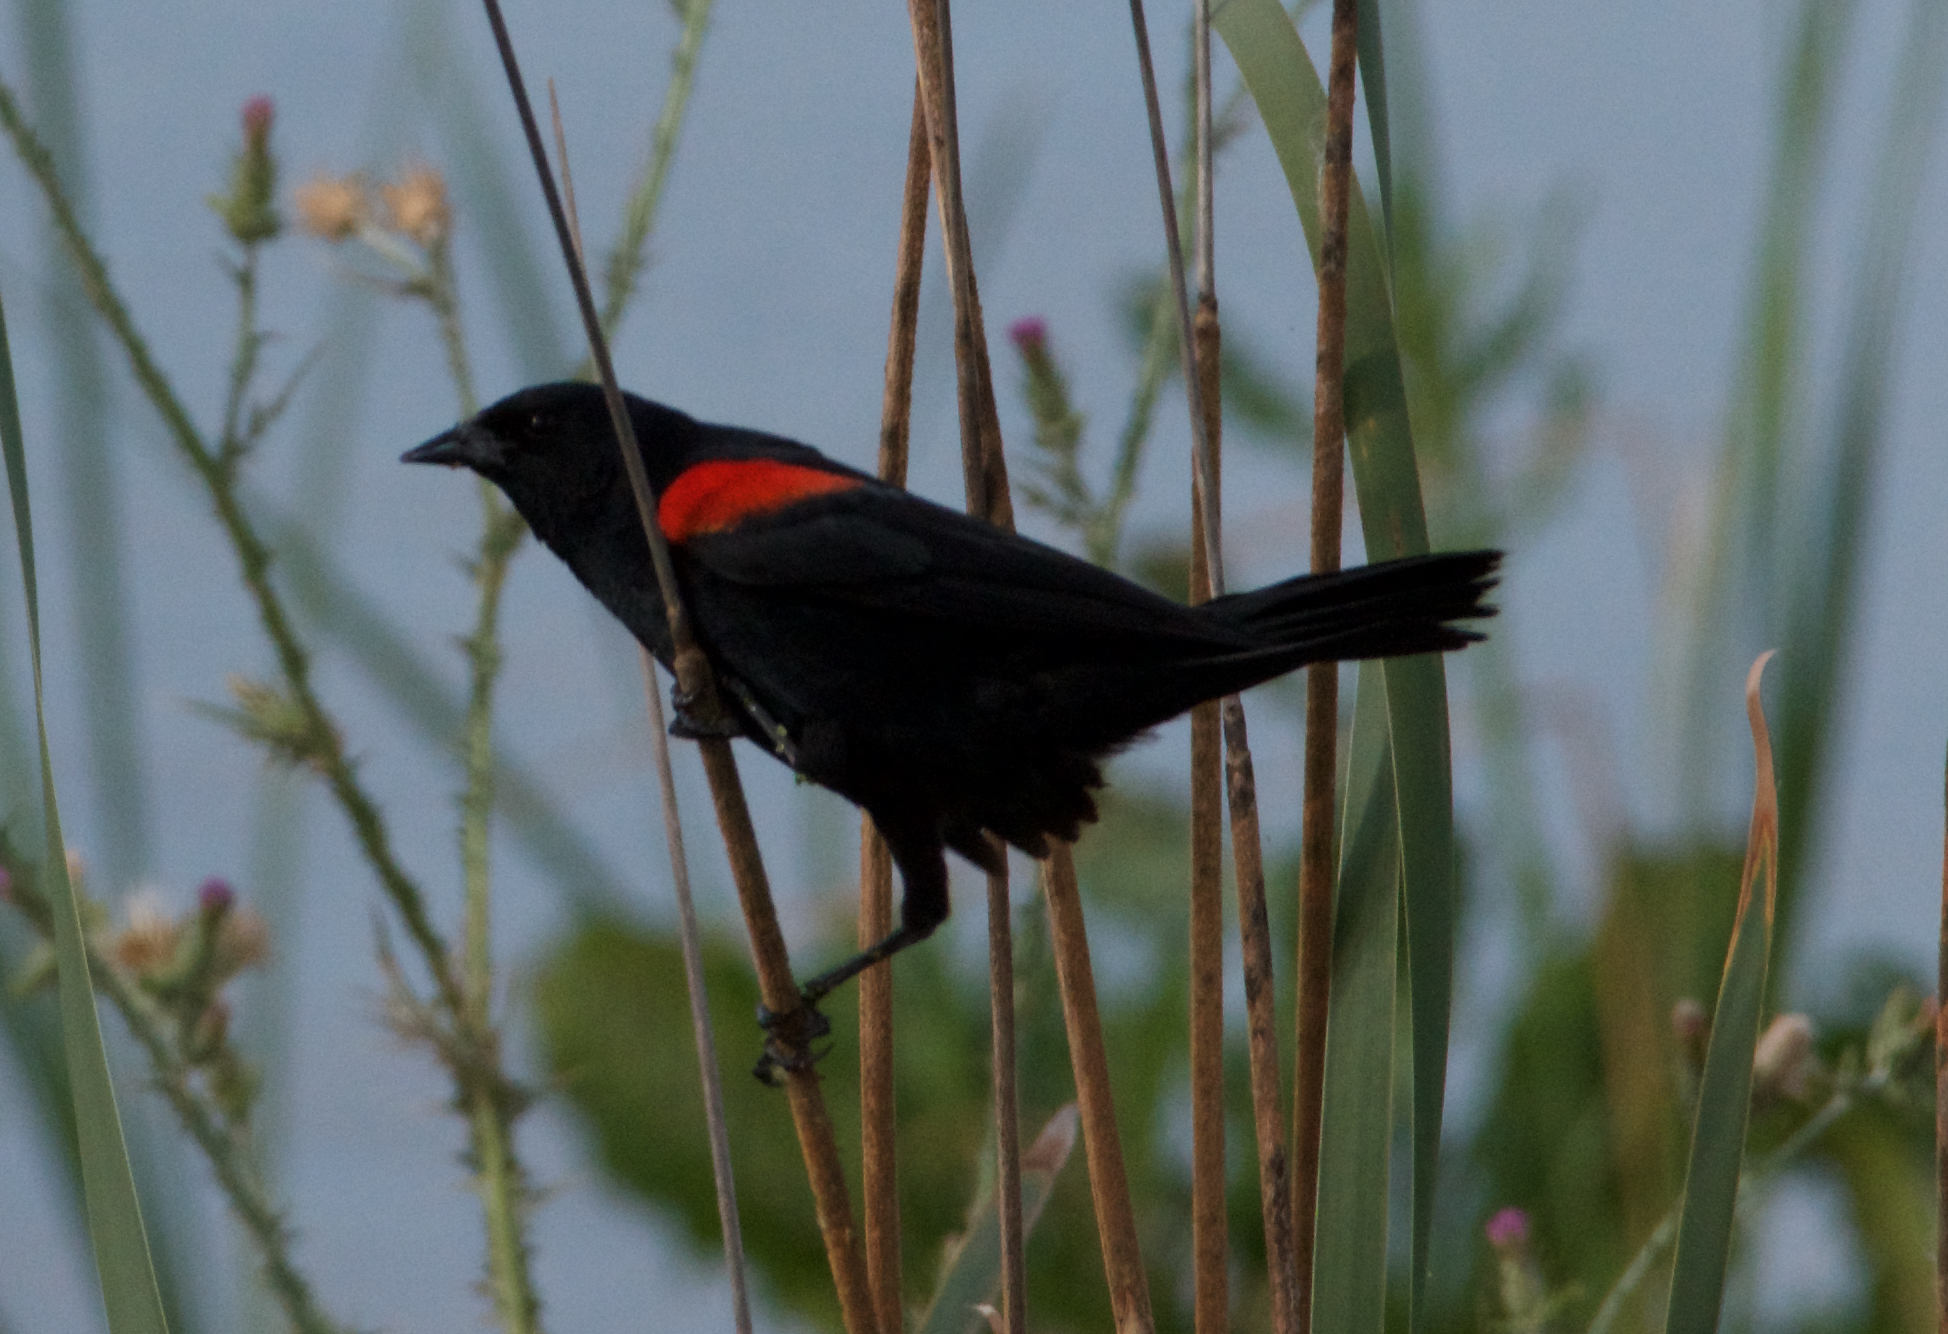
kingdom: Animalia
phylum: Chordata
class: Aves
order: Passeriformes
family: Icteridae
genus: Agelaius
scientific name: Agelaius phoeniceus
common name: Red-winged blackbird
